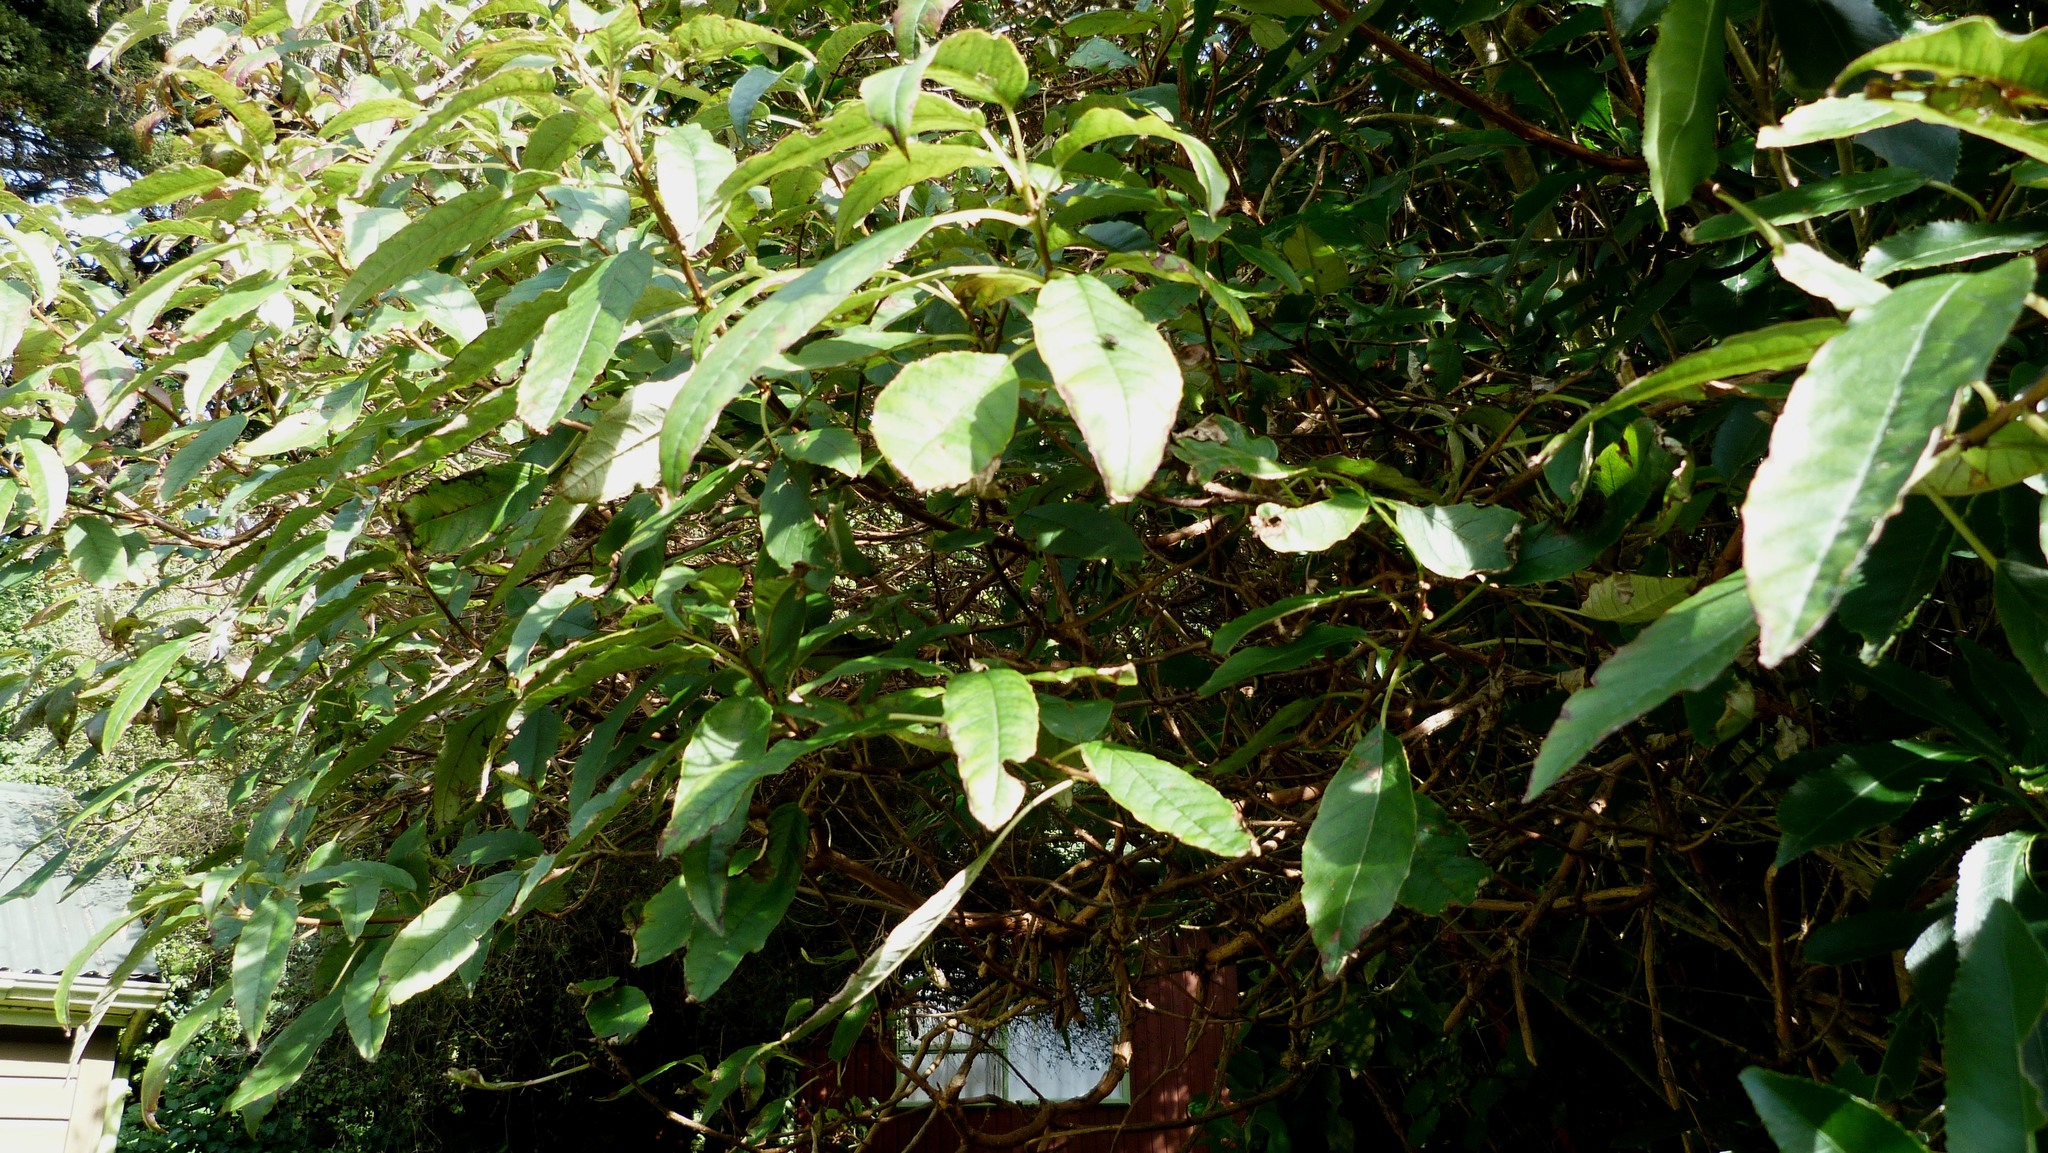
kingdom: Plantae
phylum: Tracheophyta
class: Magnoliopsida
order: Myrtales
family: Onagraceae
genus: Fuchsia
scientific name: Fuchsia excorticata
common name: Tree fuchsia
